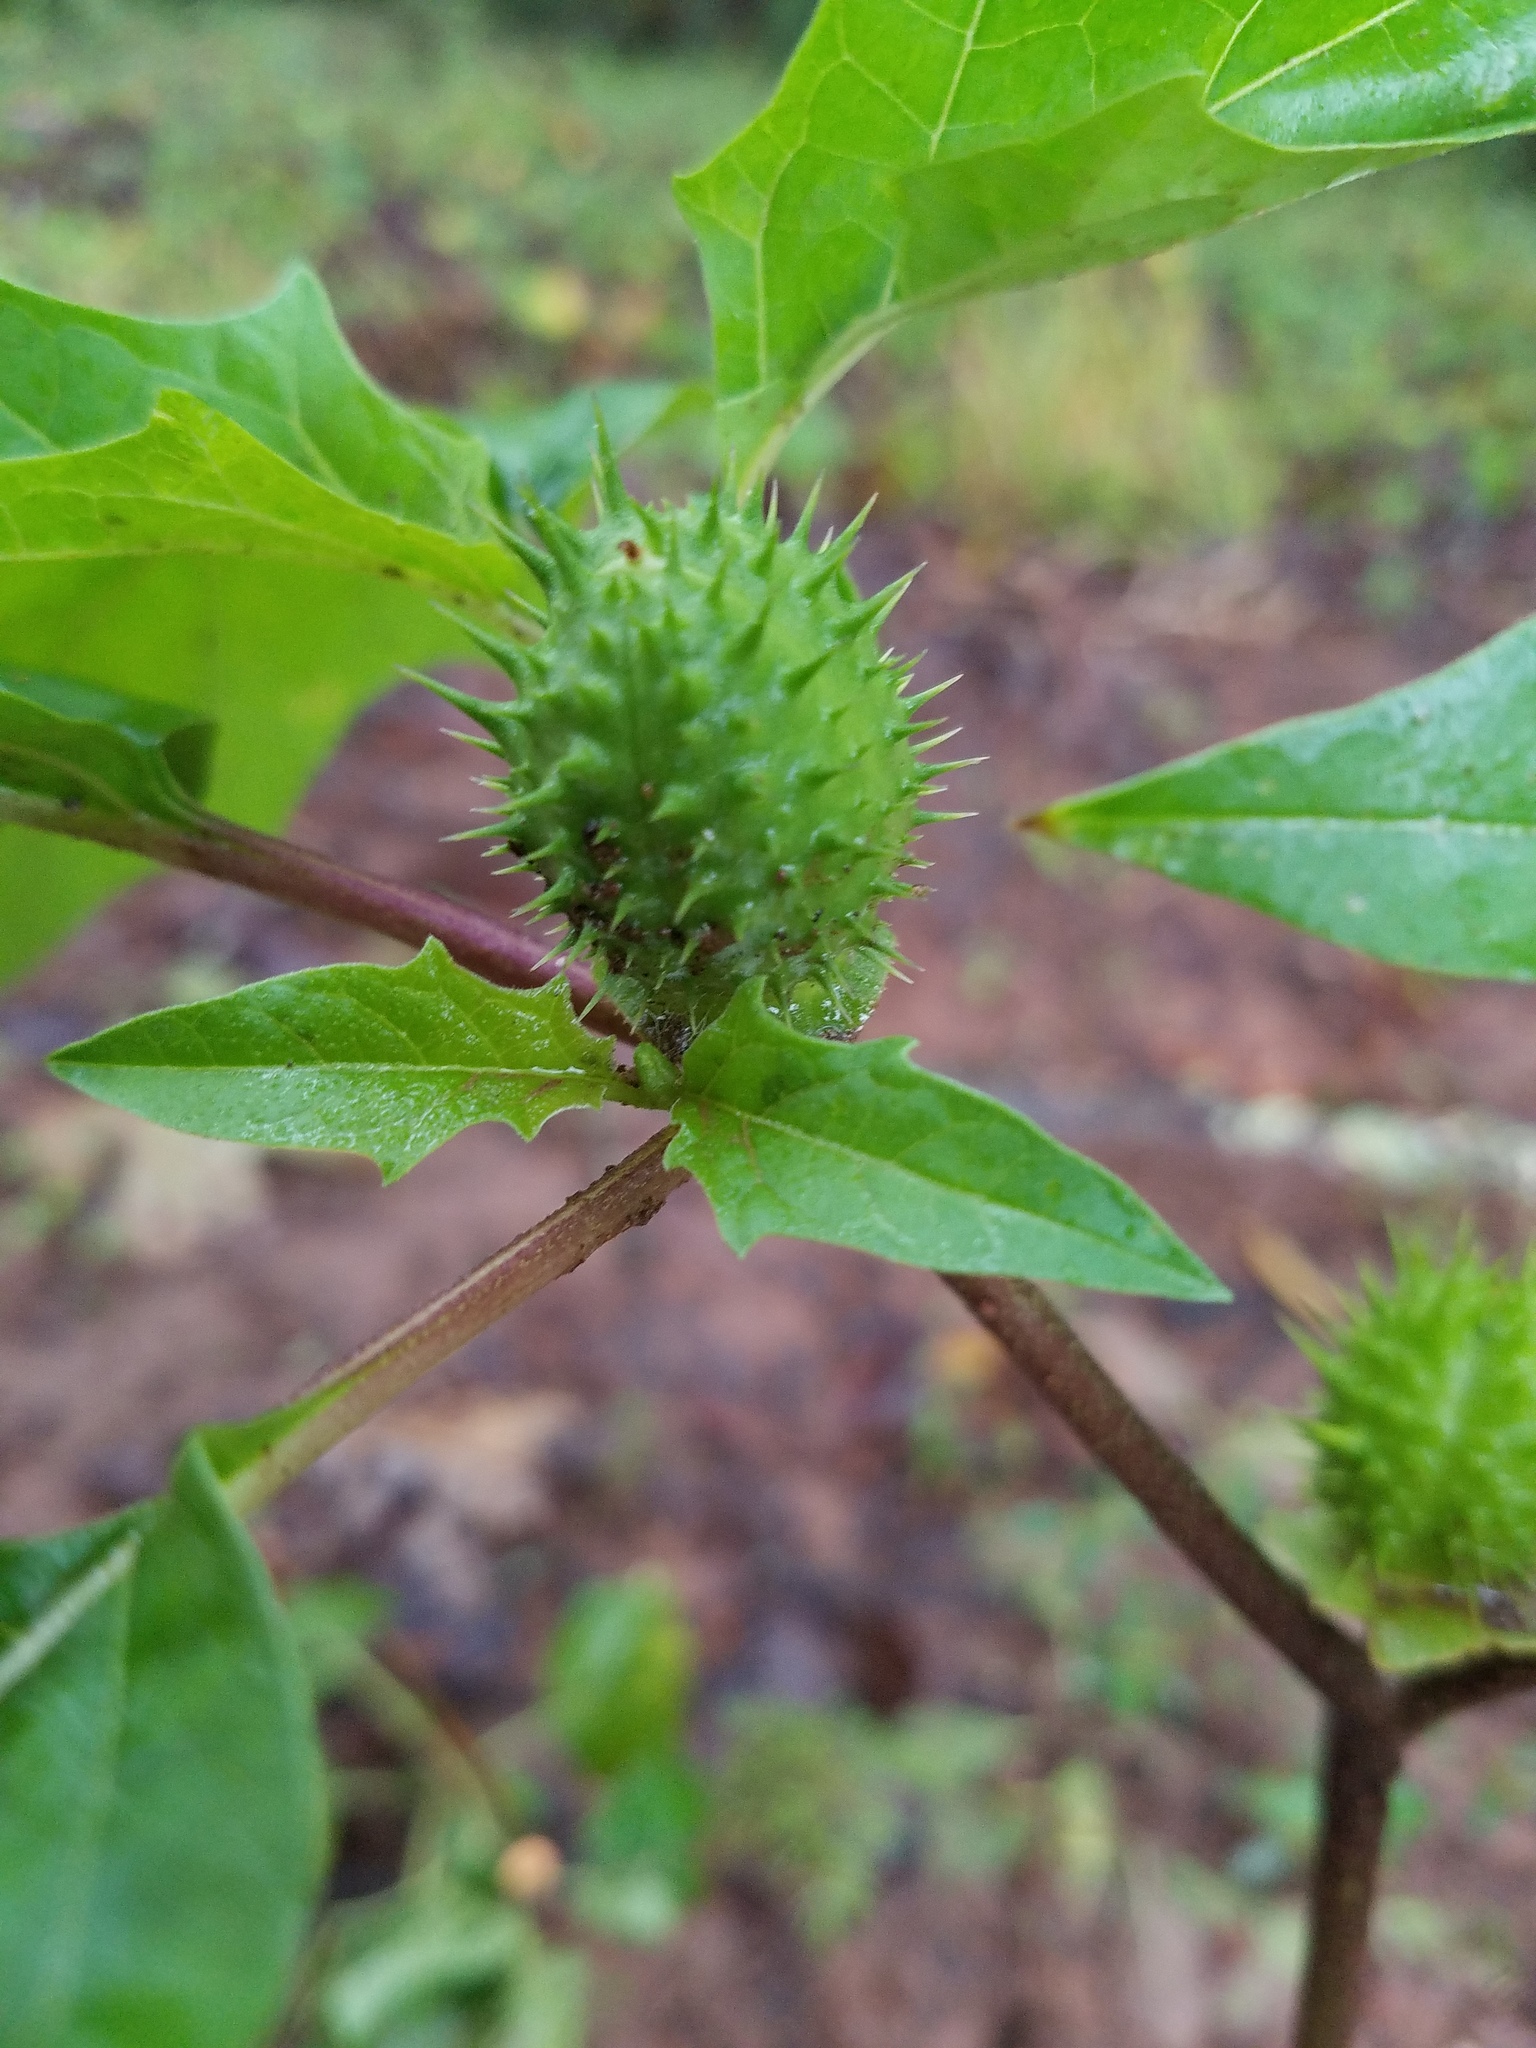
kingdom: Plantae
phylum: Tracheophyta
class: Magnoliopsida
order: Solanales
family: Solanaceae
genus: Datura
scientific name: Datura stramonium
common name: Thorn-apple
